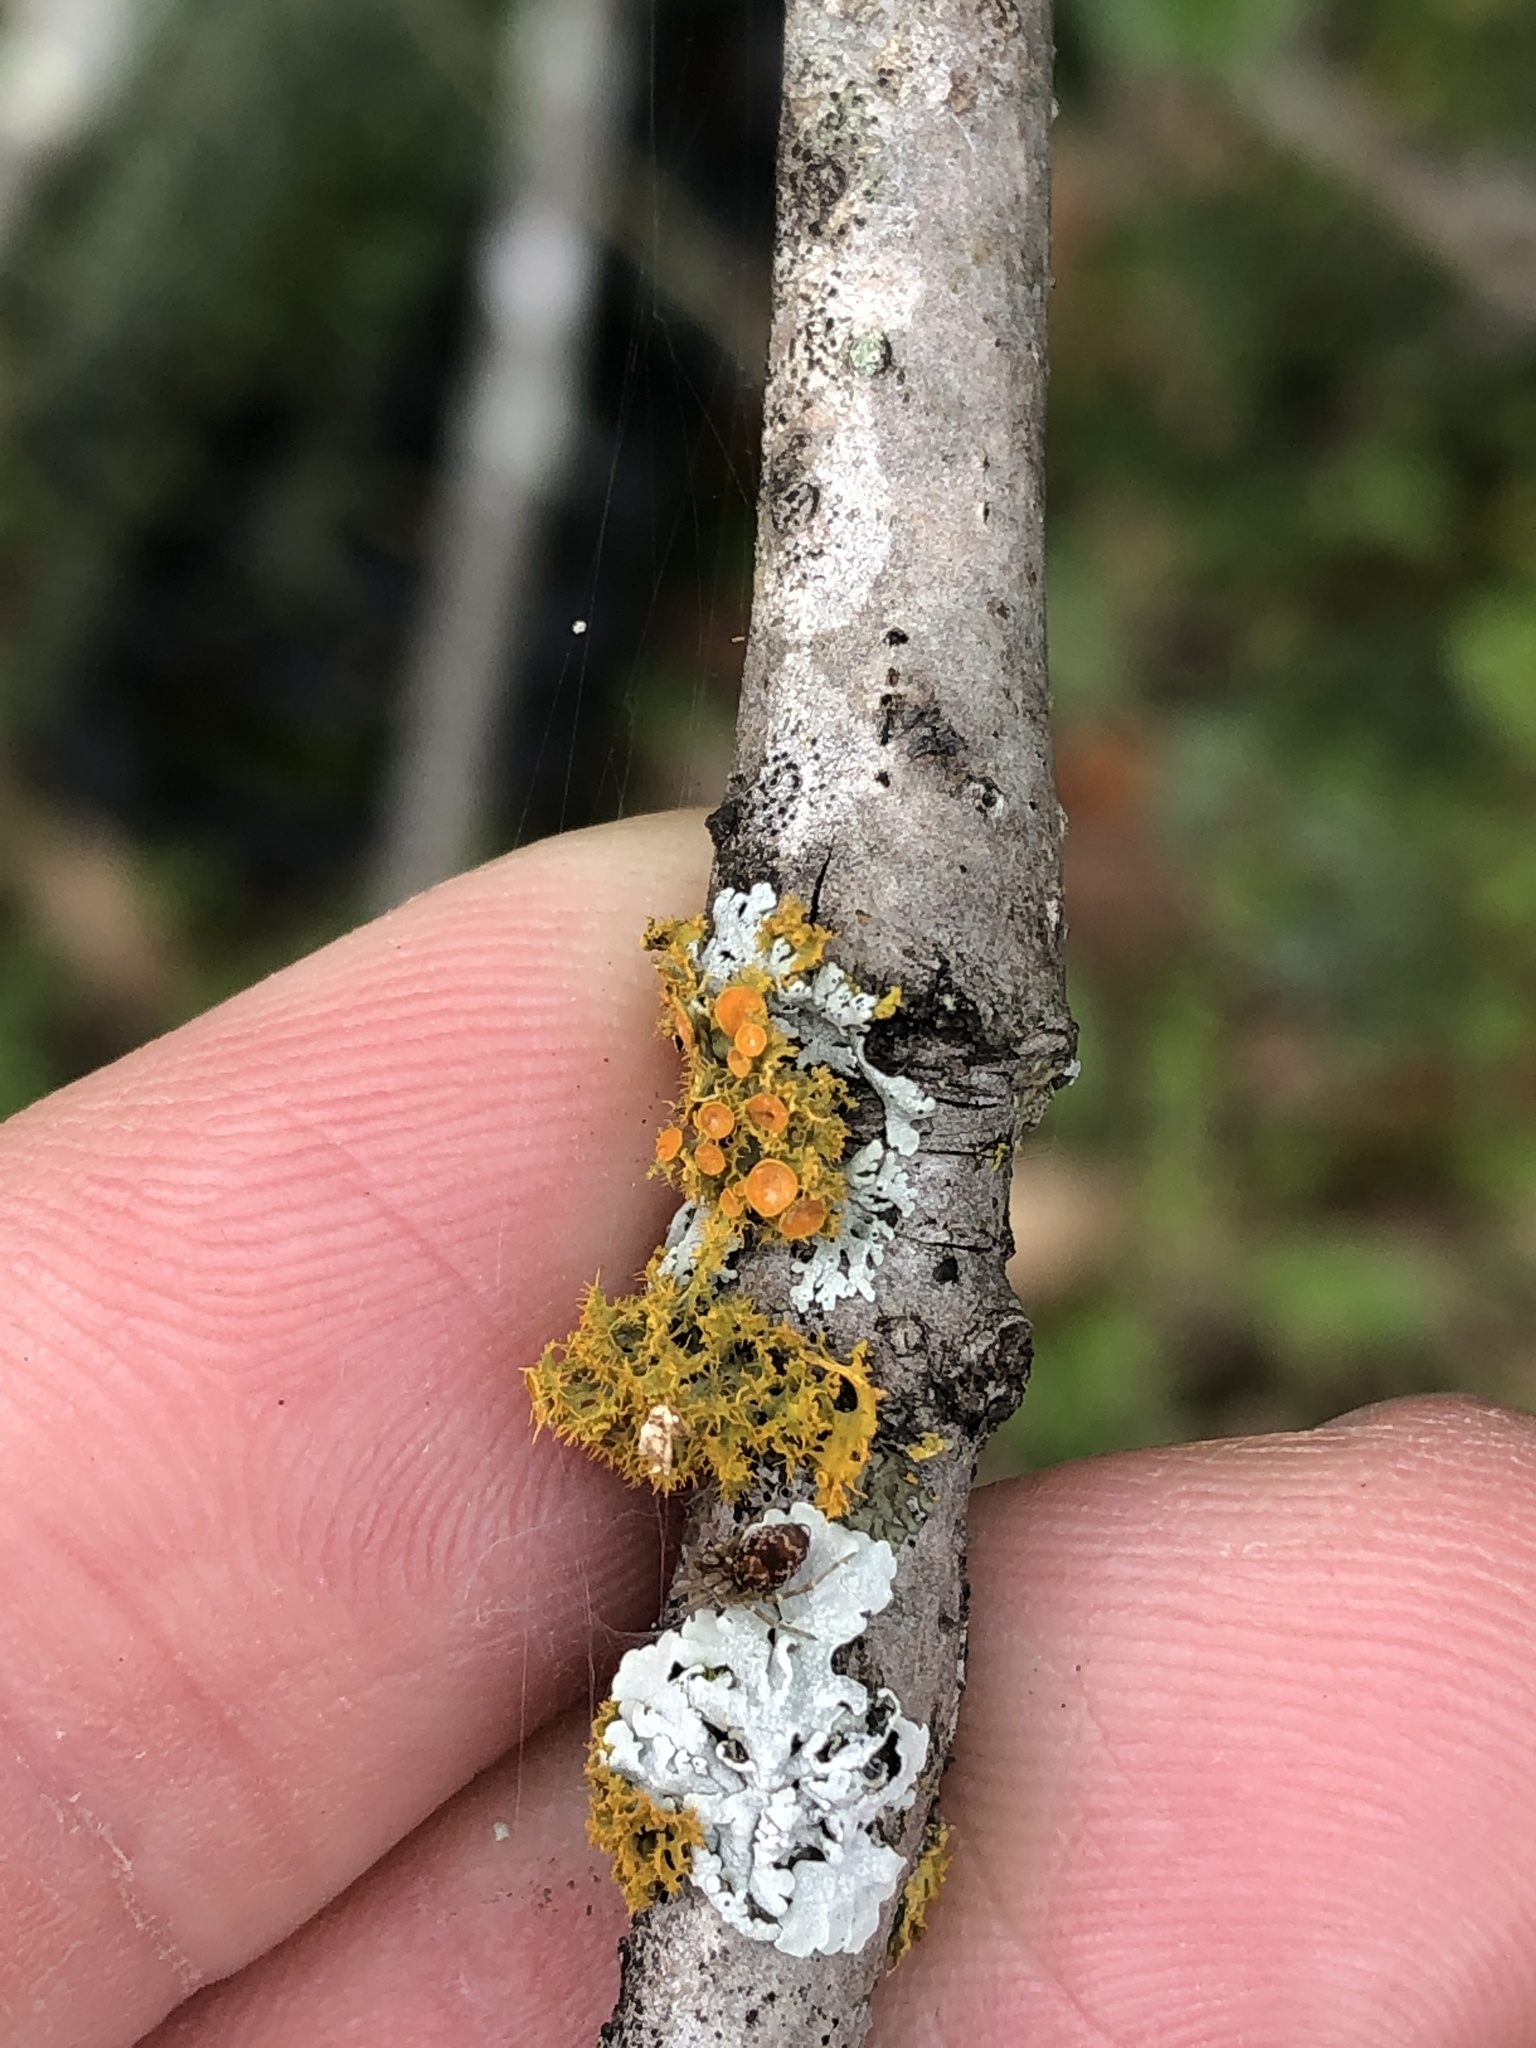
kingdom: Fungi
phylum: Ascomycota
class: Lecanoromycetes
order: Teloschistales
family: Teloschistaceae
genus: Niorma
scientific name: Niorma chrysophthalma
